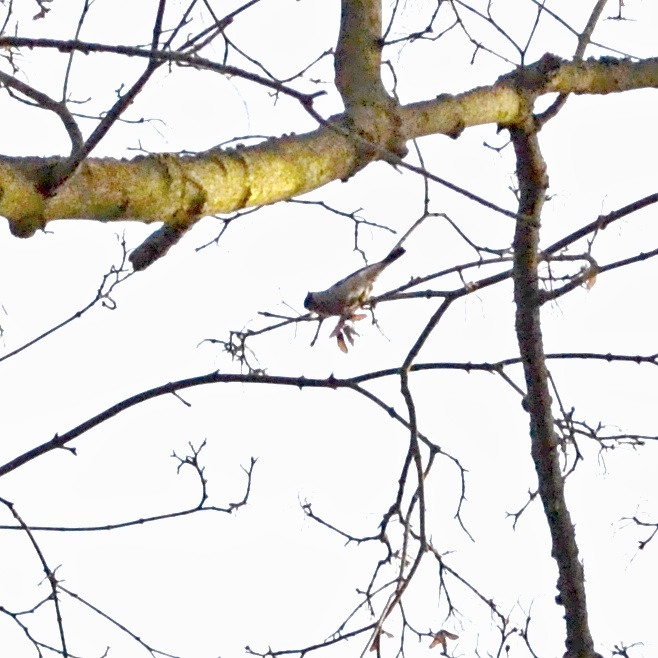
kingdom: Animalia
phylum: Chordata
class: Aves
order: Passeriformes
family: Fringillidae
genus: Pyrrhula
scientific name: Pyrrhula pyrrhula
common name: Eurasian bullfinch
